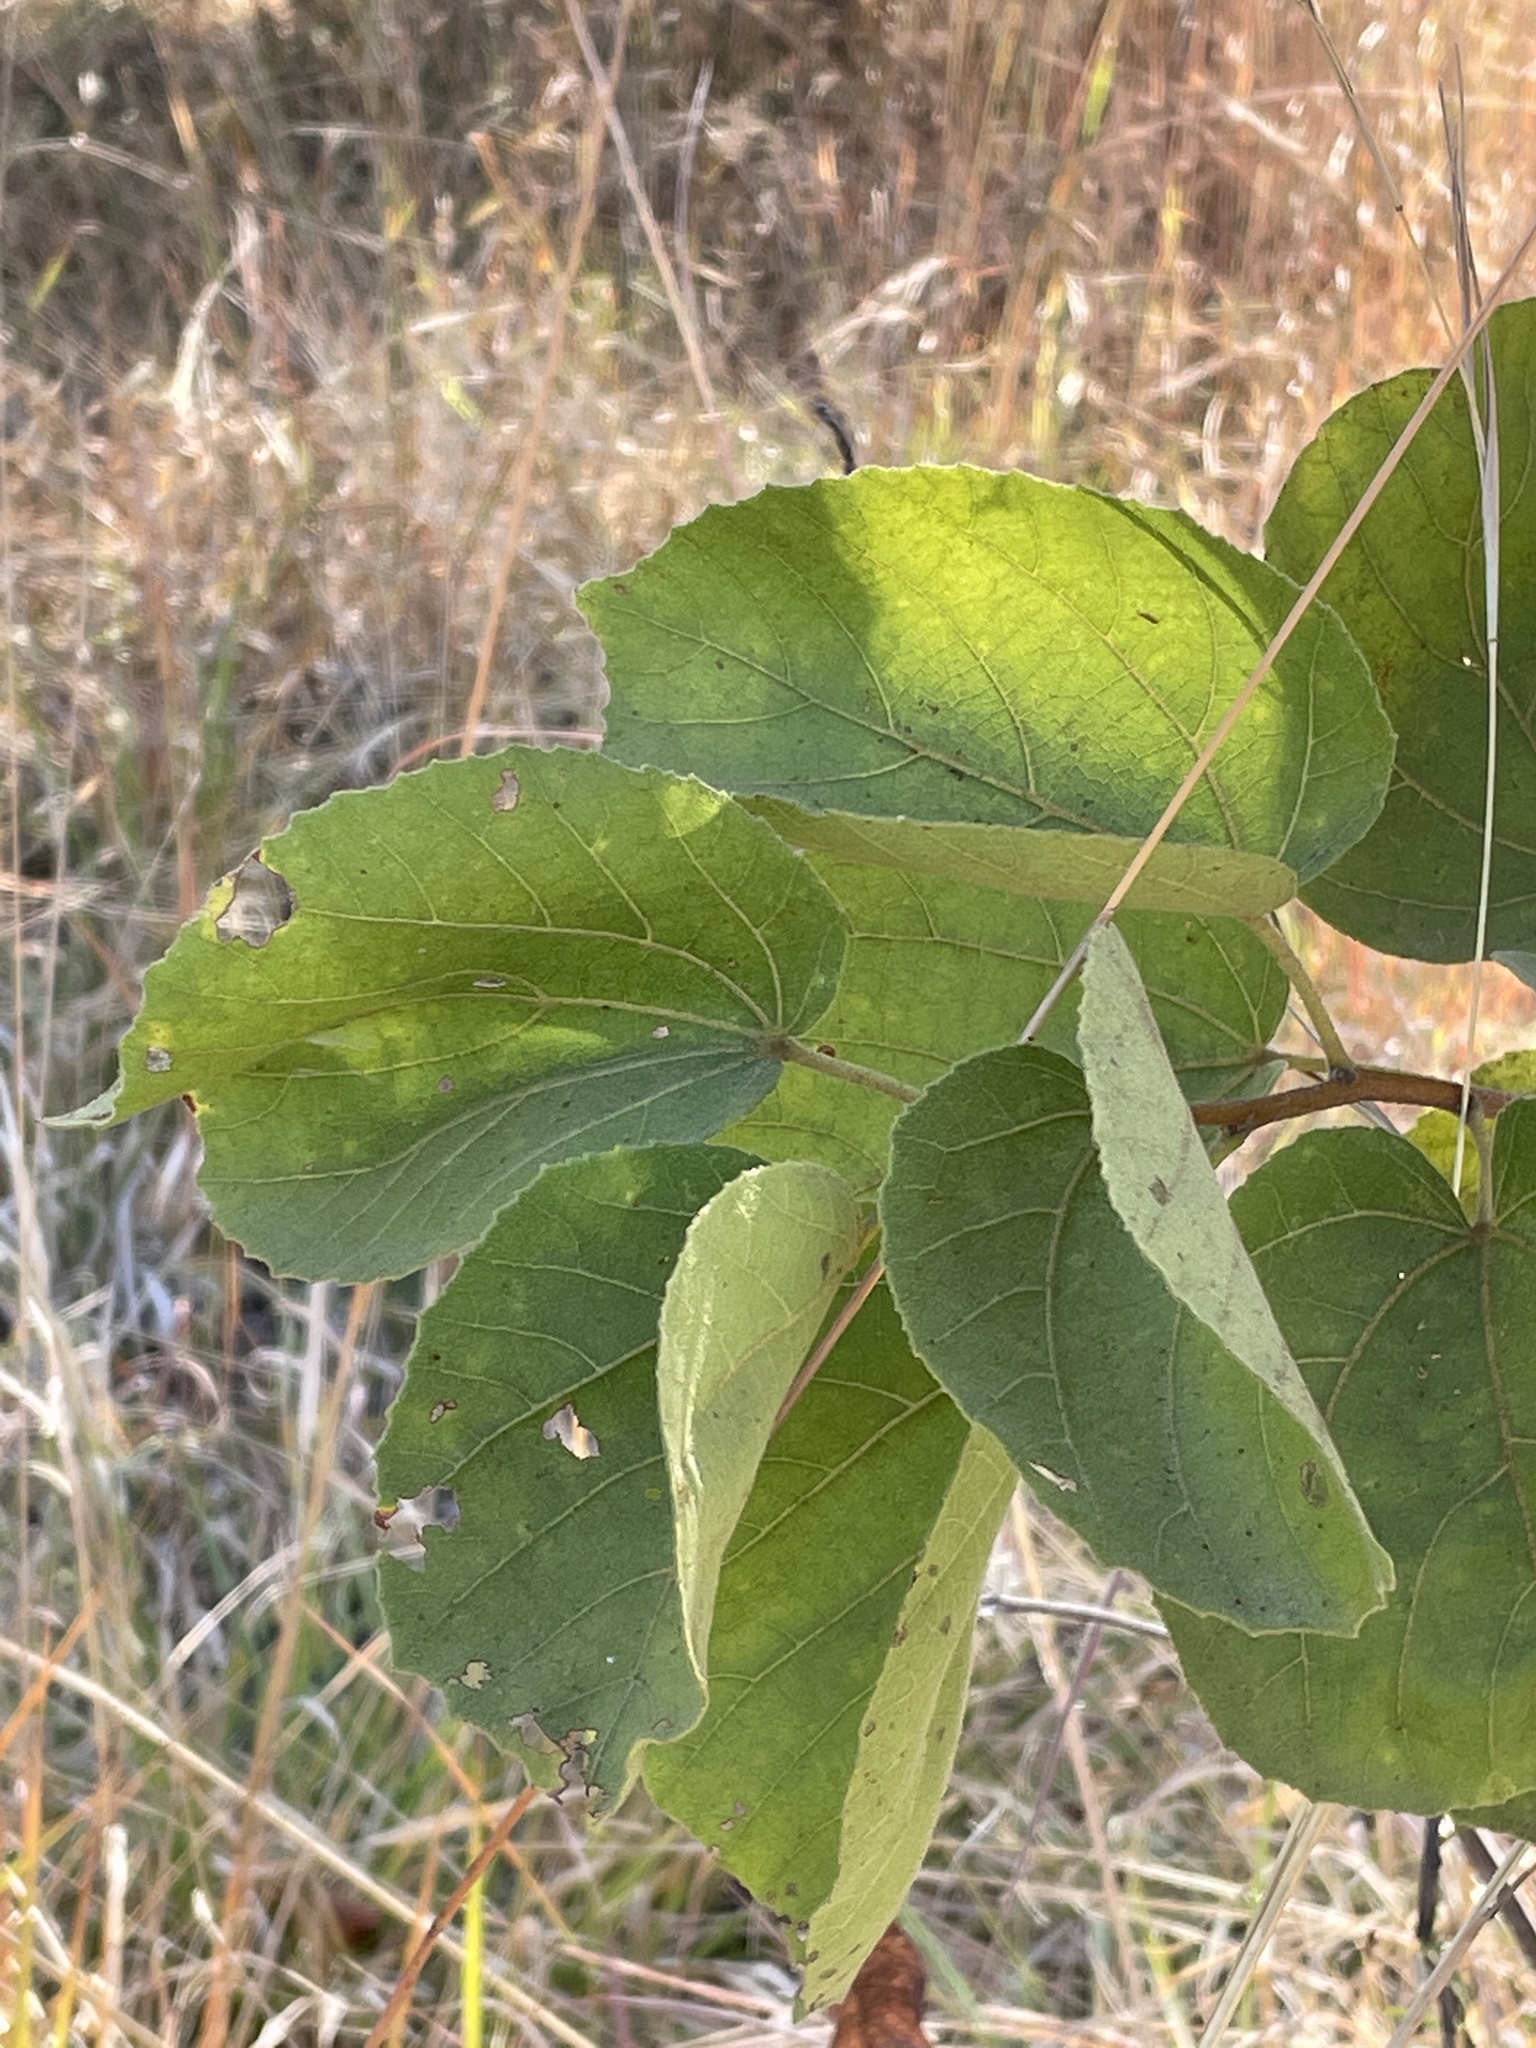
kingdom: Plantae
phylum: Tracheophyta
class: Magnoliopsida
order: Malvales
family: Malvaceae
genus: Dombeya
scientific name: Dombeya rotundifolia
